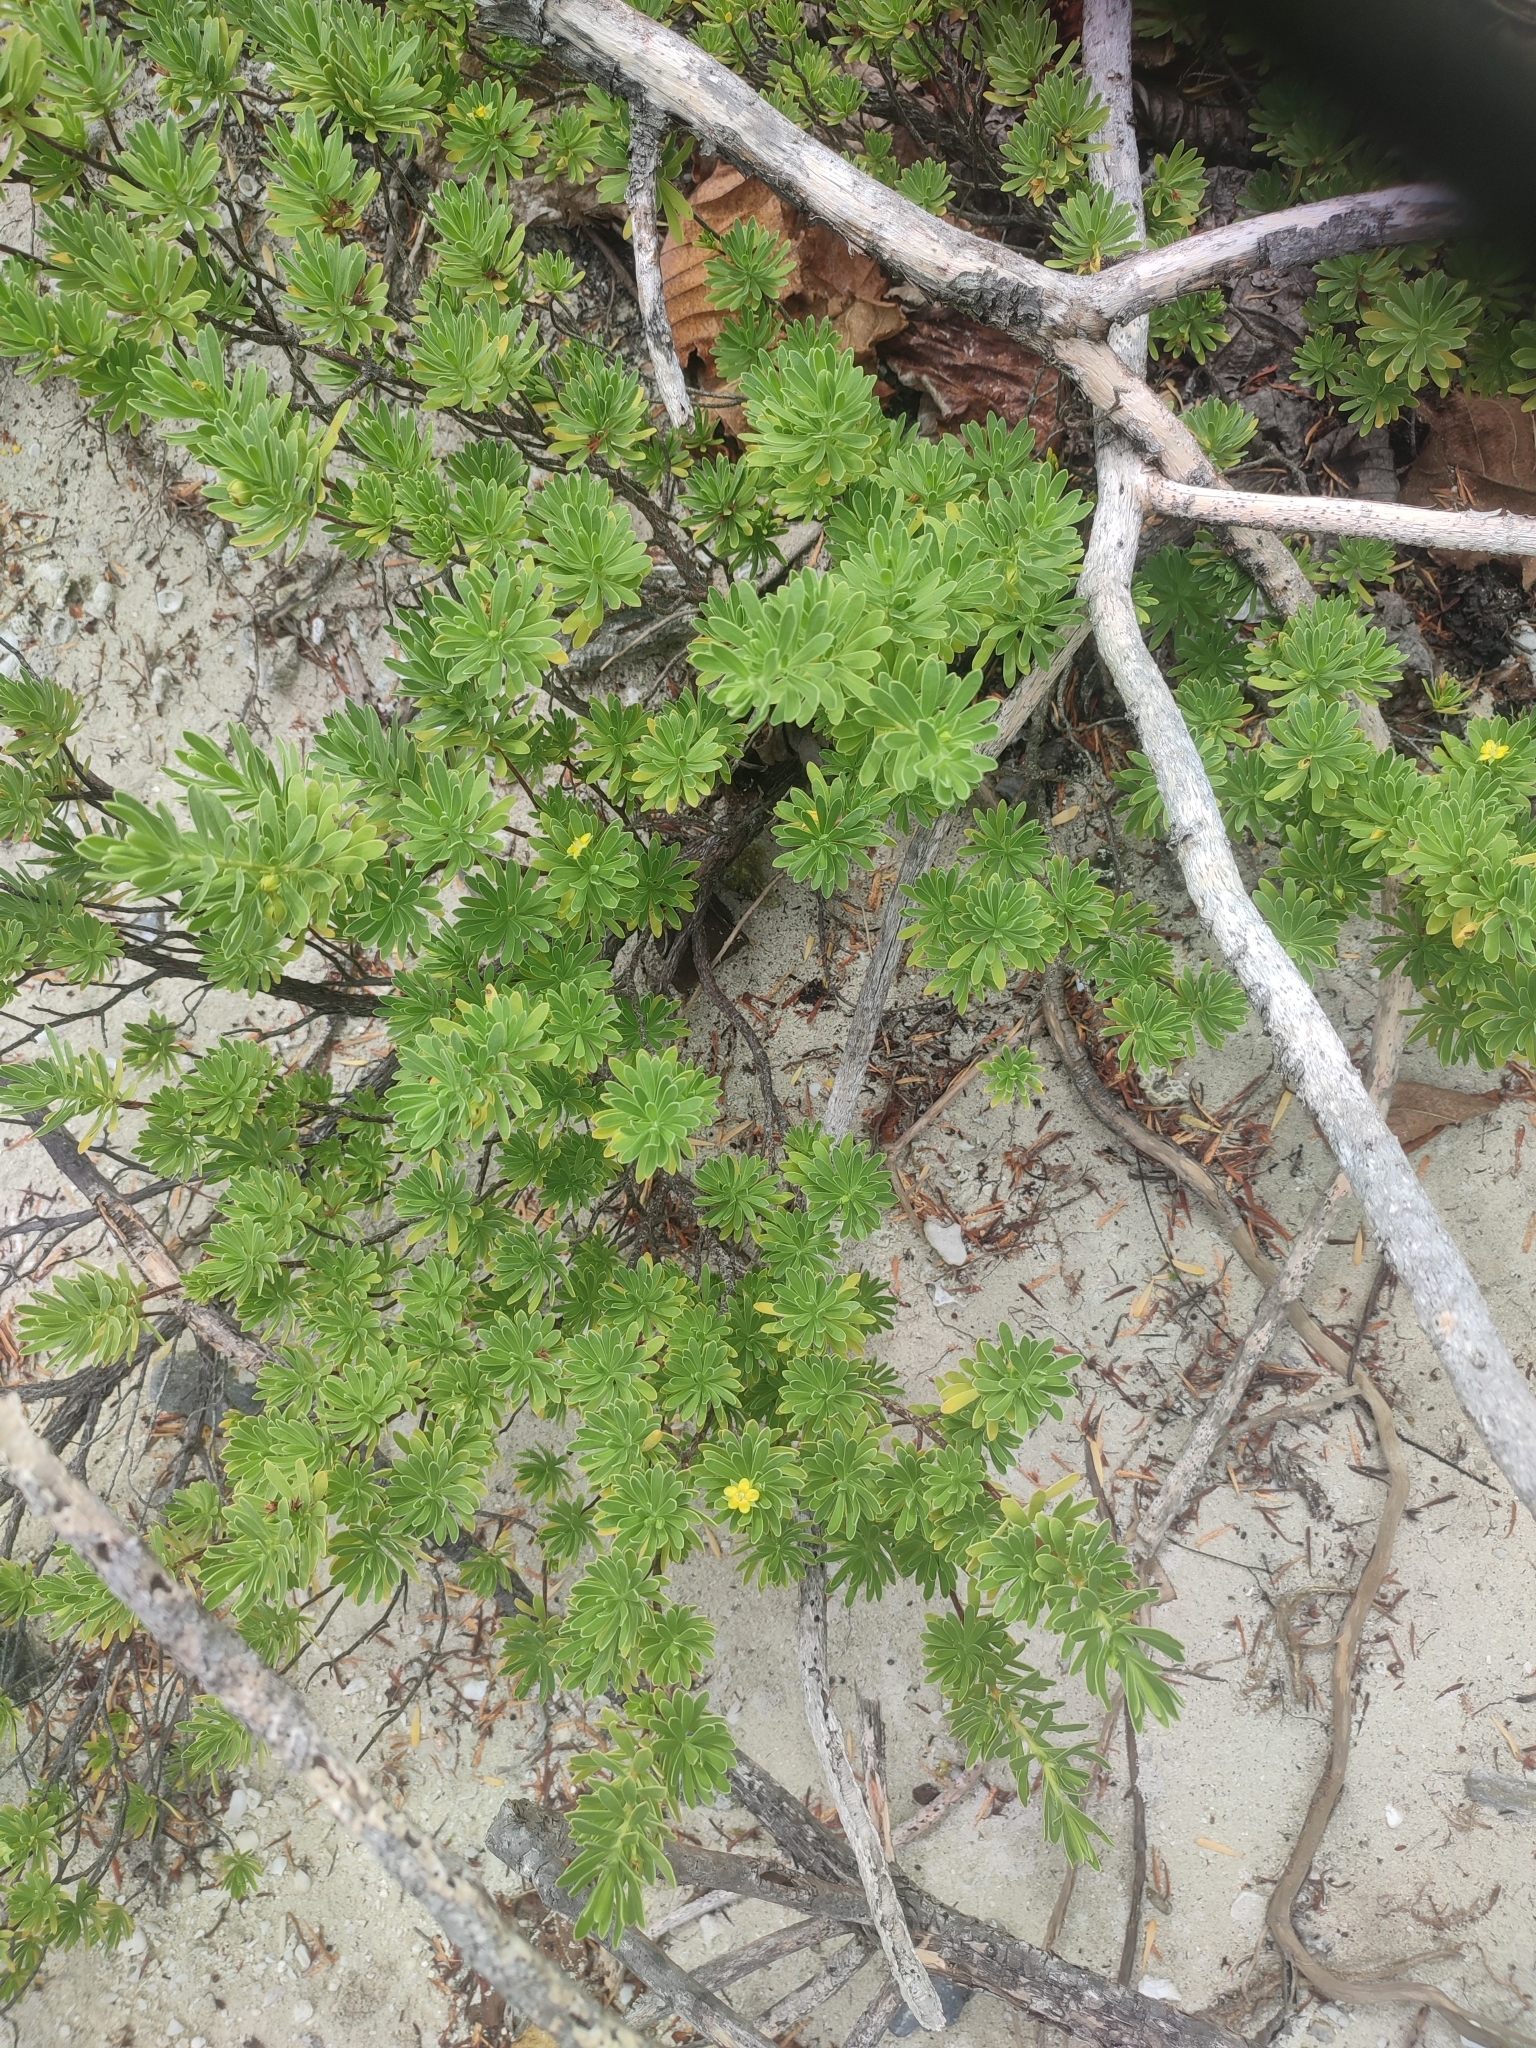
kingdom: Plantae
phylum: Tracheophyta
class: Magnoliopsida
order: Fabales
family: Surianaceae
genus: Suriana
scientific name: Suriana maritima
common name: Bay-cedar
